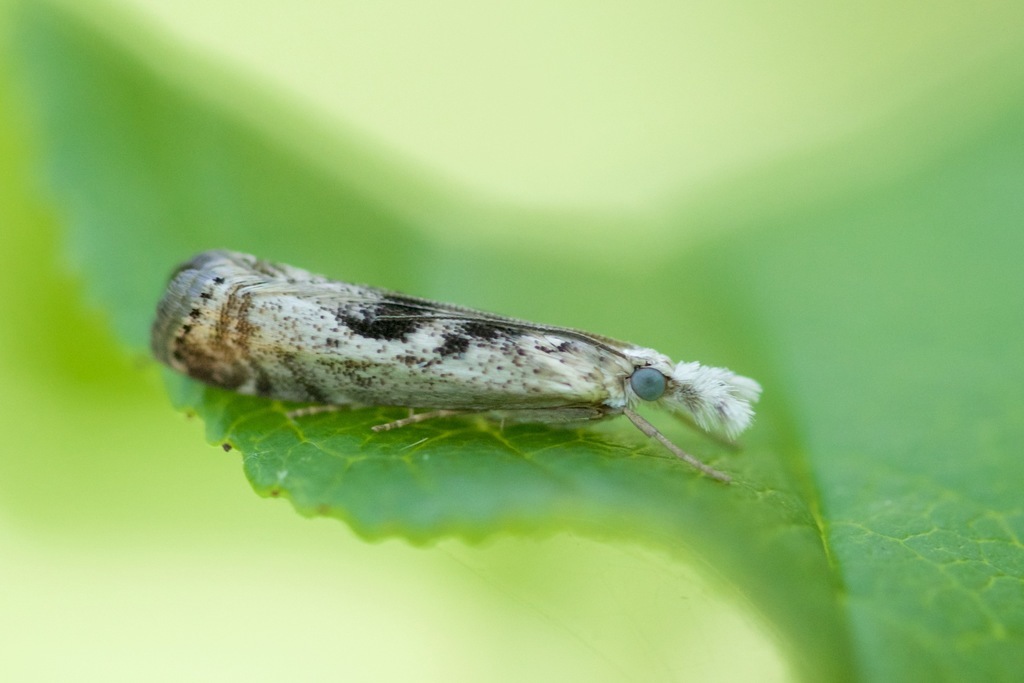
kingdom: Animalia
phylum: Arthropoda
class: Insecta
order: Lepidoptera
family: Crambidae
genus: Microcrambus
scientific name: Microcrambus immunellus
